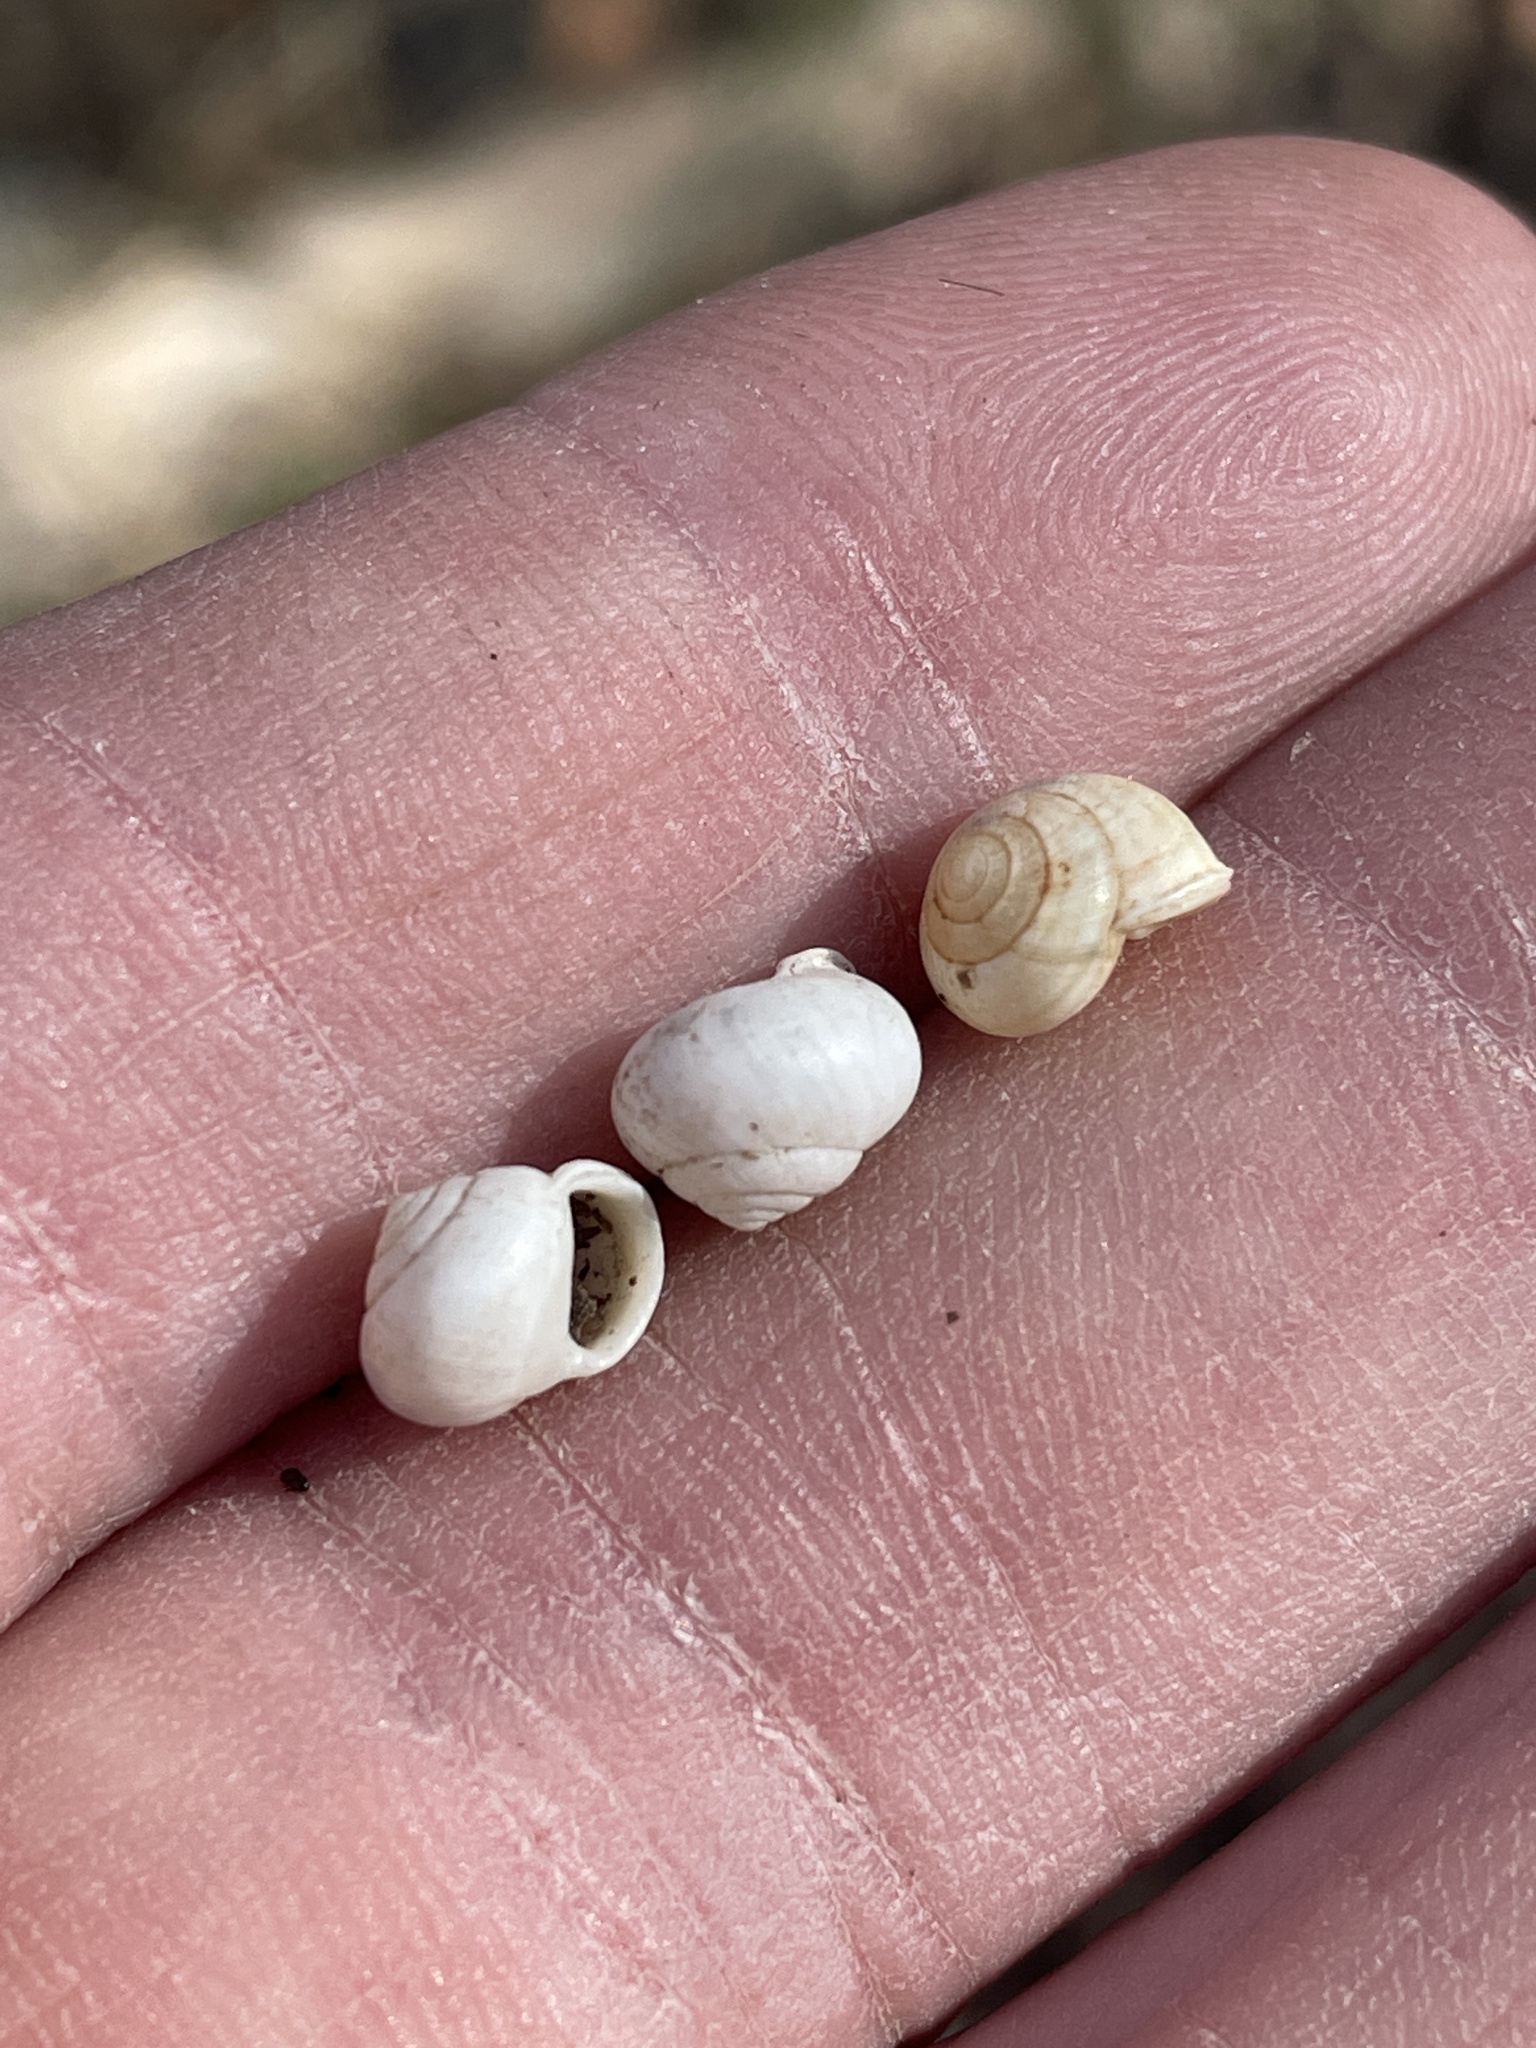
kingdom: Animalia
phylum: Mollusca
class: Gastropoda
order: Cycloneritida
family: Helicinidae
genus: Helicina
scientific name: Helicina orbiculata
